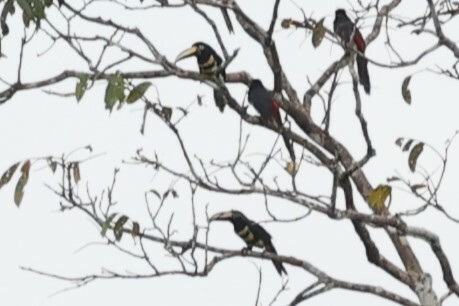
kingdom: Animalia
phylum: Chordata
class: Aves
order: Piciformes
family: Ramphastidae
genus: Pteroglossus
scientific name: Pteroglossus pluricinctus
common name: Many-banded aracari
